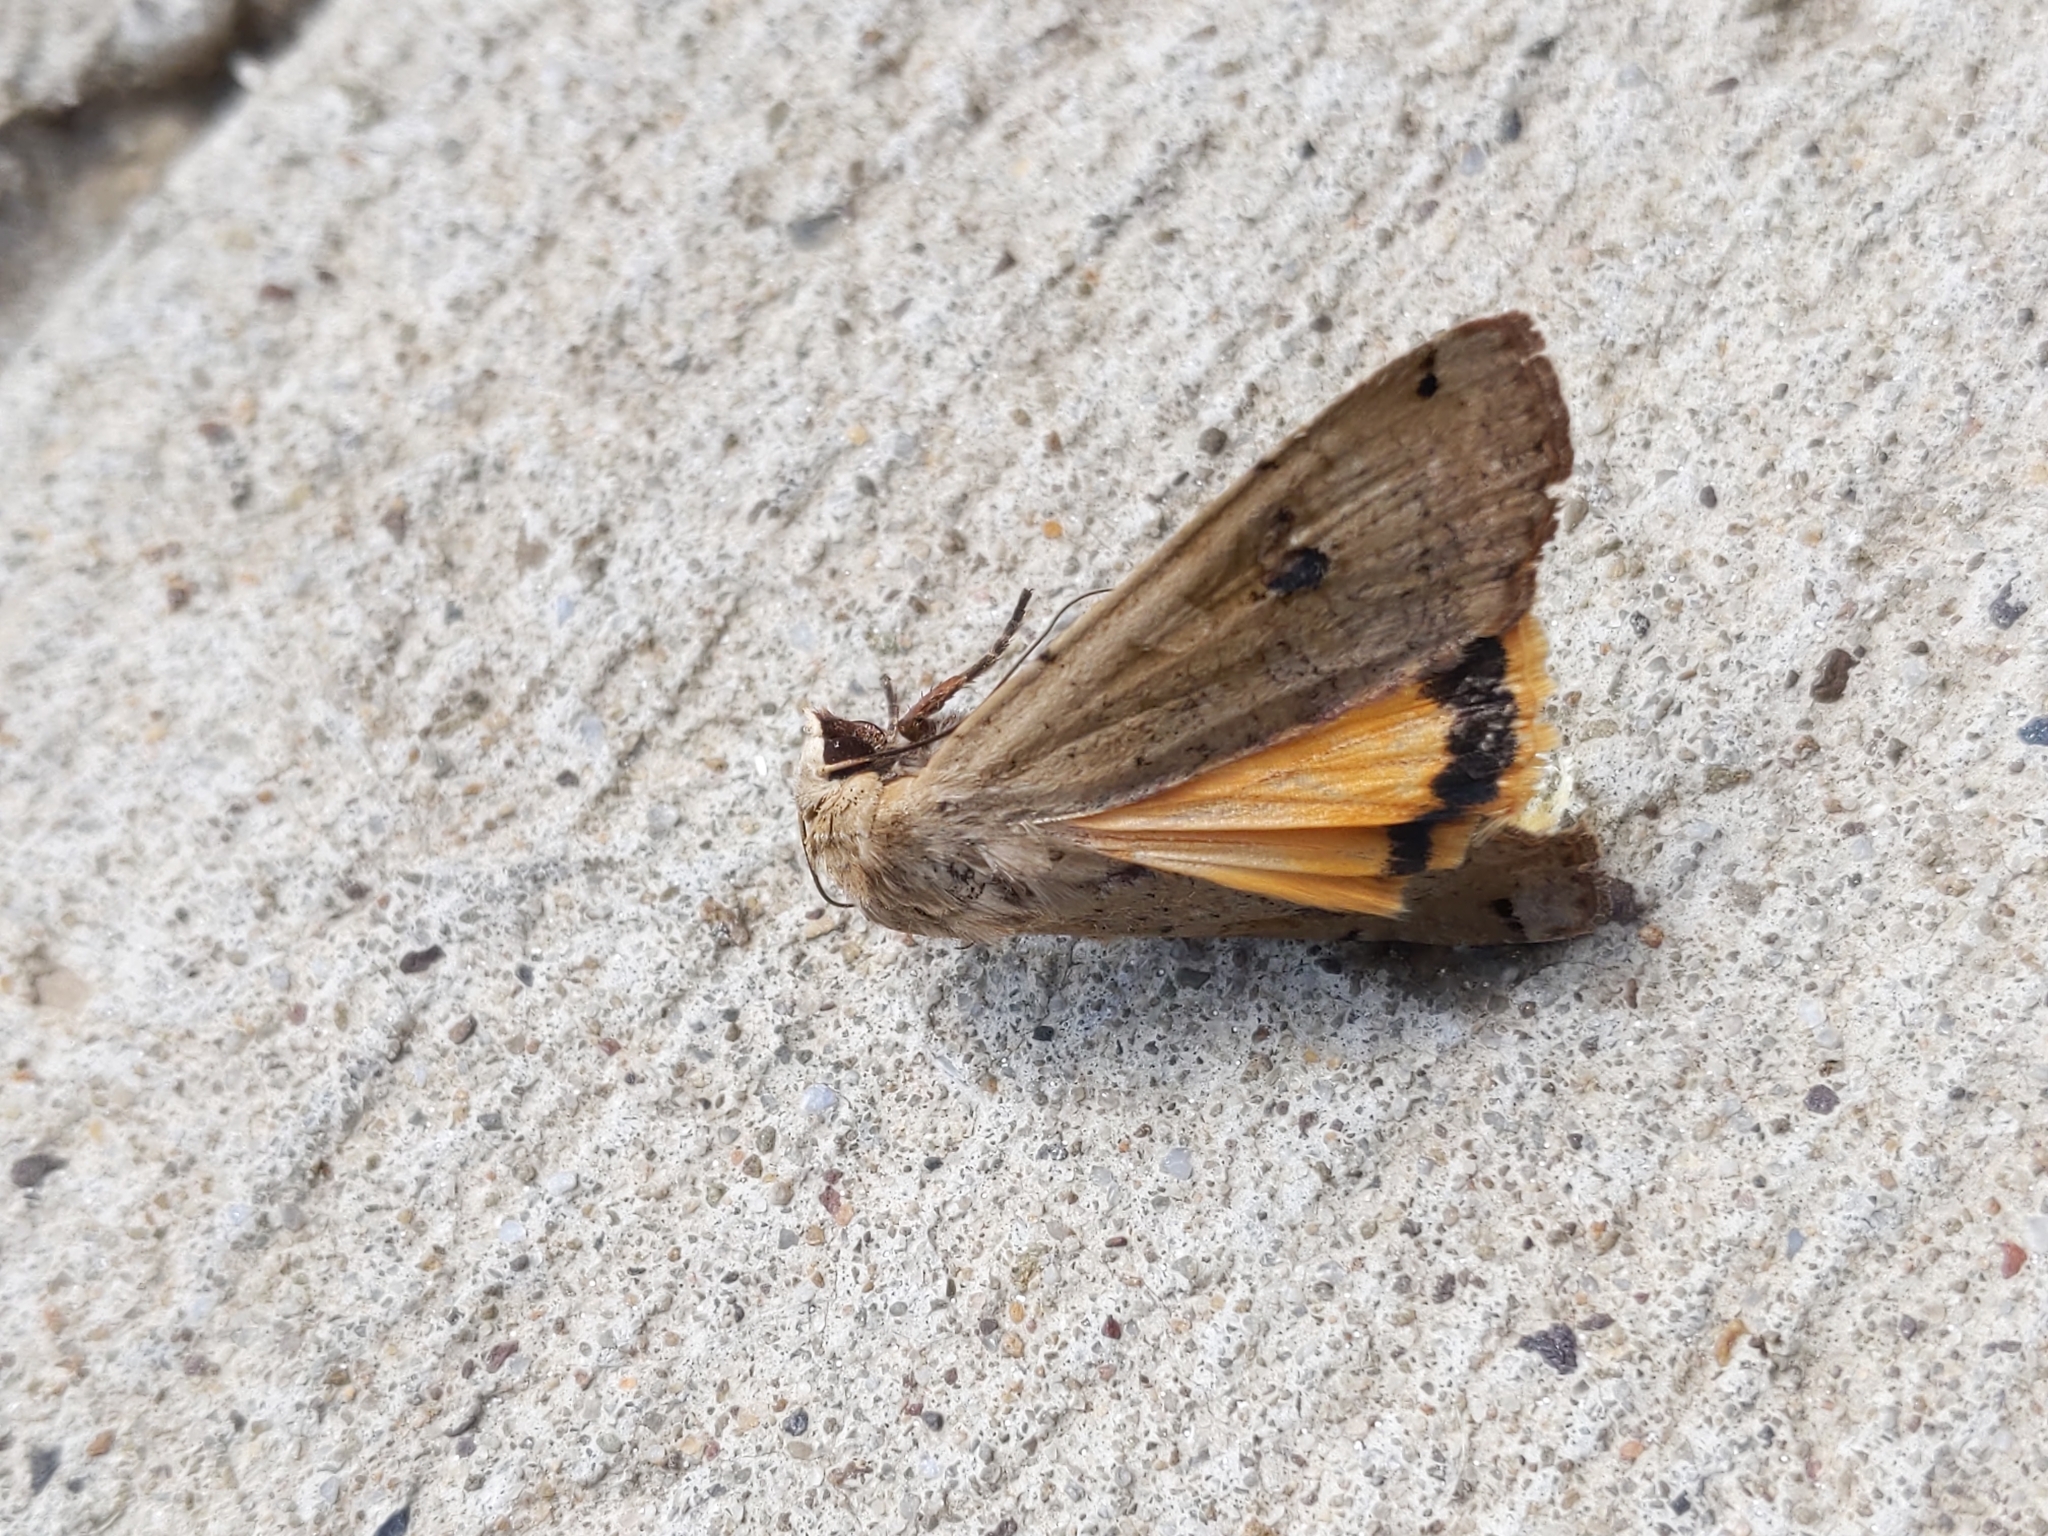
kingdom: Animalia
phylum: Arthropoda
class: Insecta
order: Lepidoptera
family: Noctuidae
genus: Noctua
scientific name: Noctua pronuba
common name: Large yellow underwing
